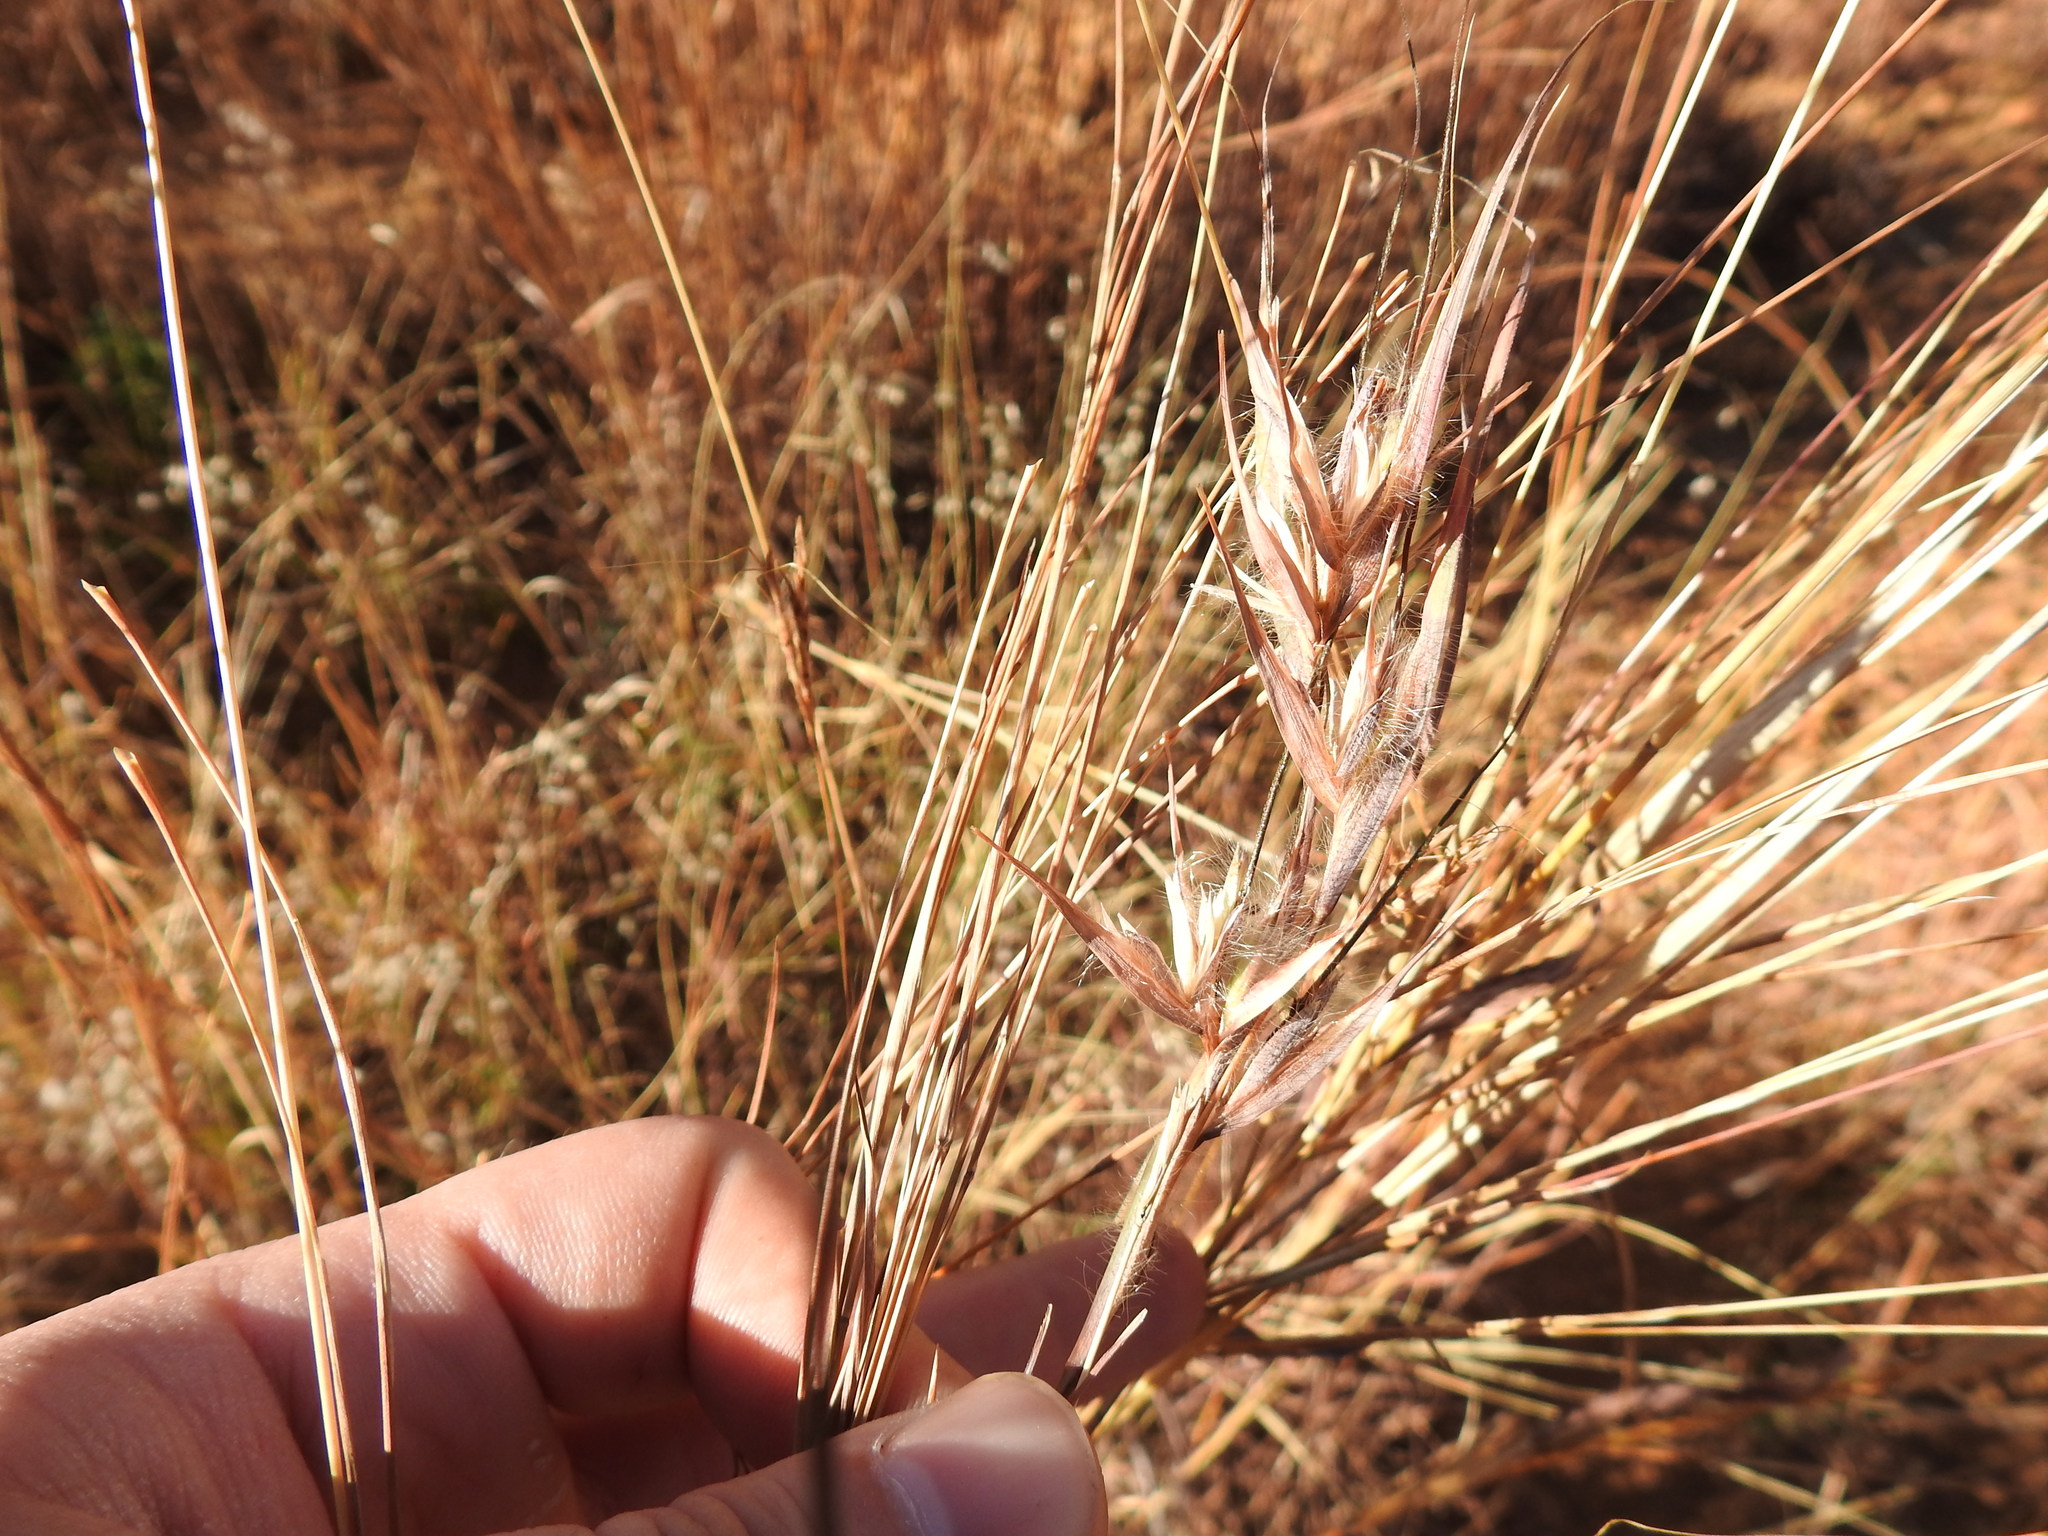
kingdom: Plantae
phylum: Tracheophyta
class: Liliopsida
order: Poales
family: Poaceae
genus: Themeda
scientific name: Themeda triandra
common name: Kangaroo grass
